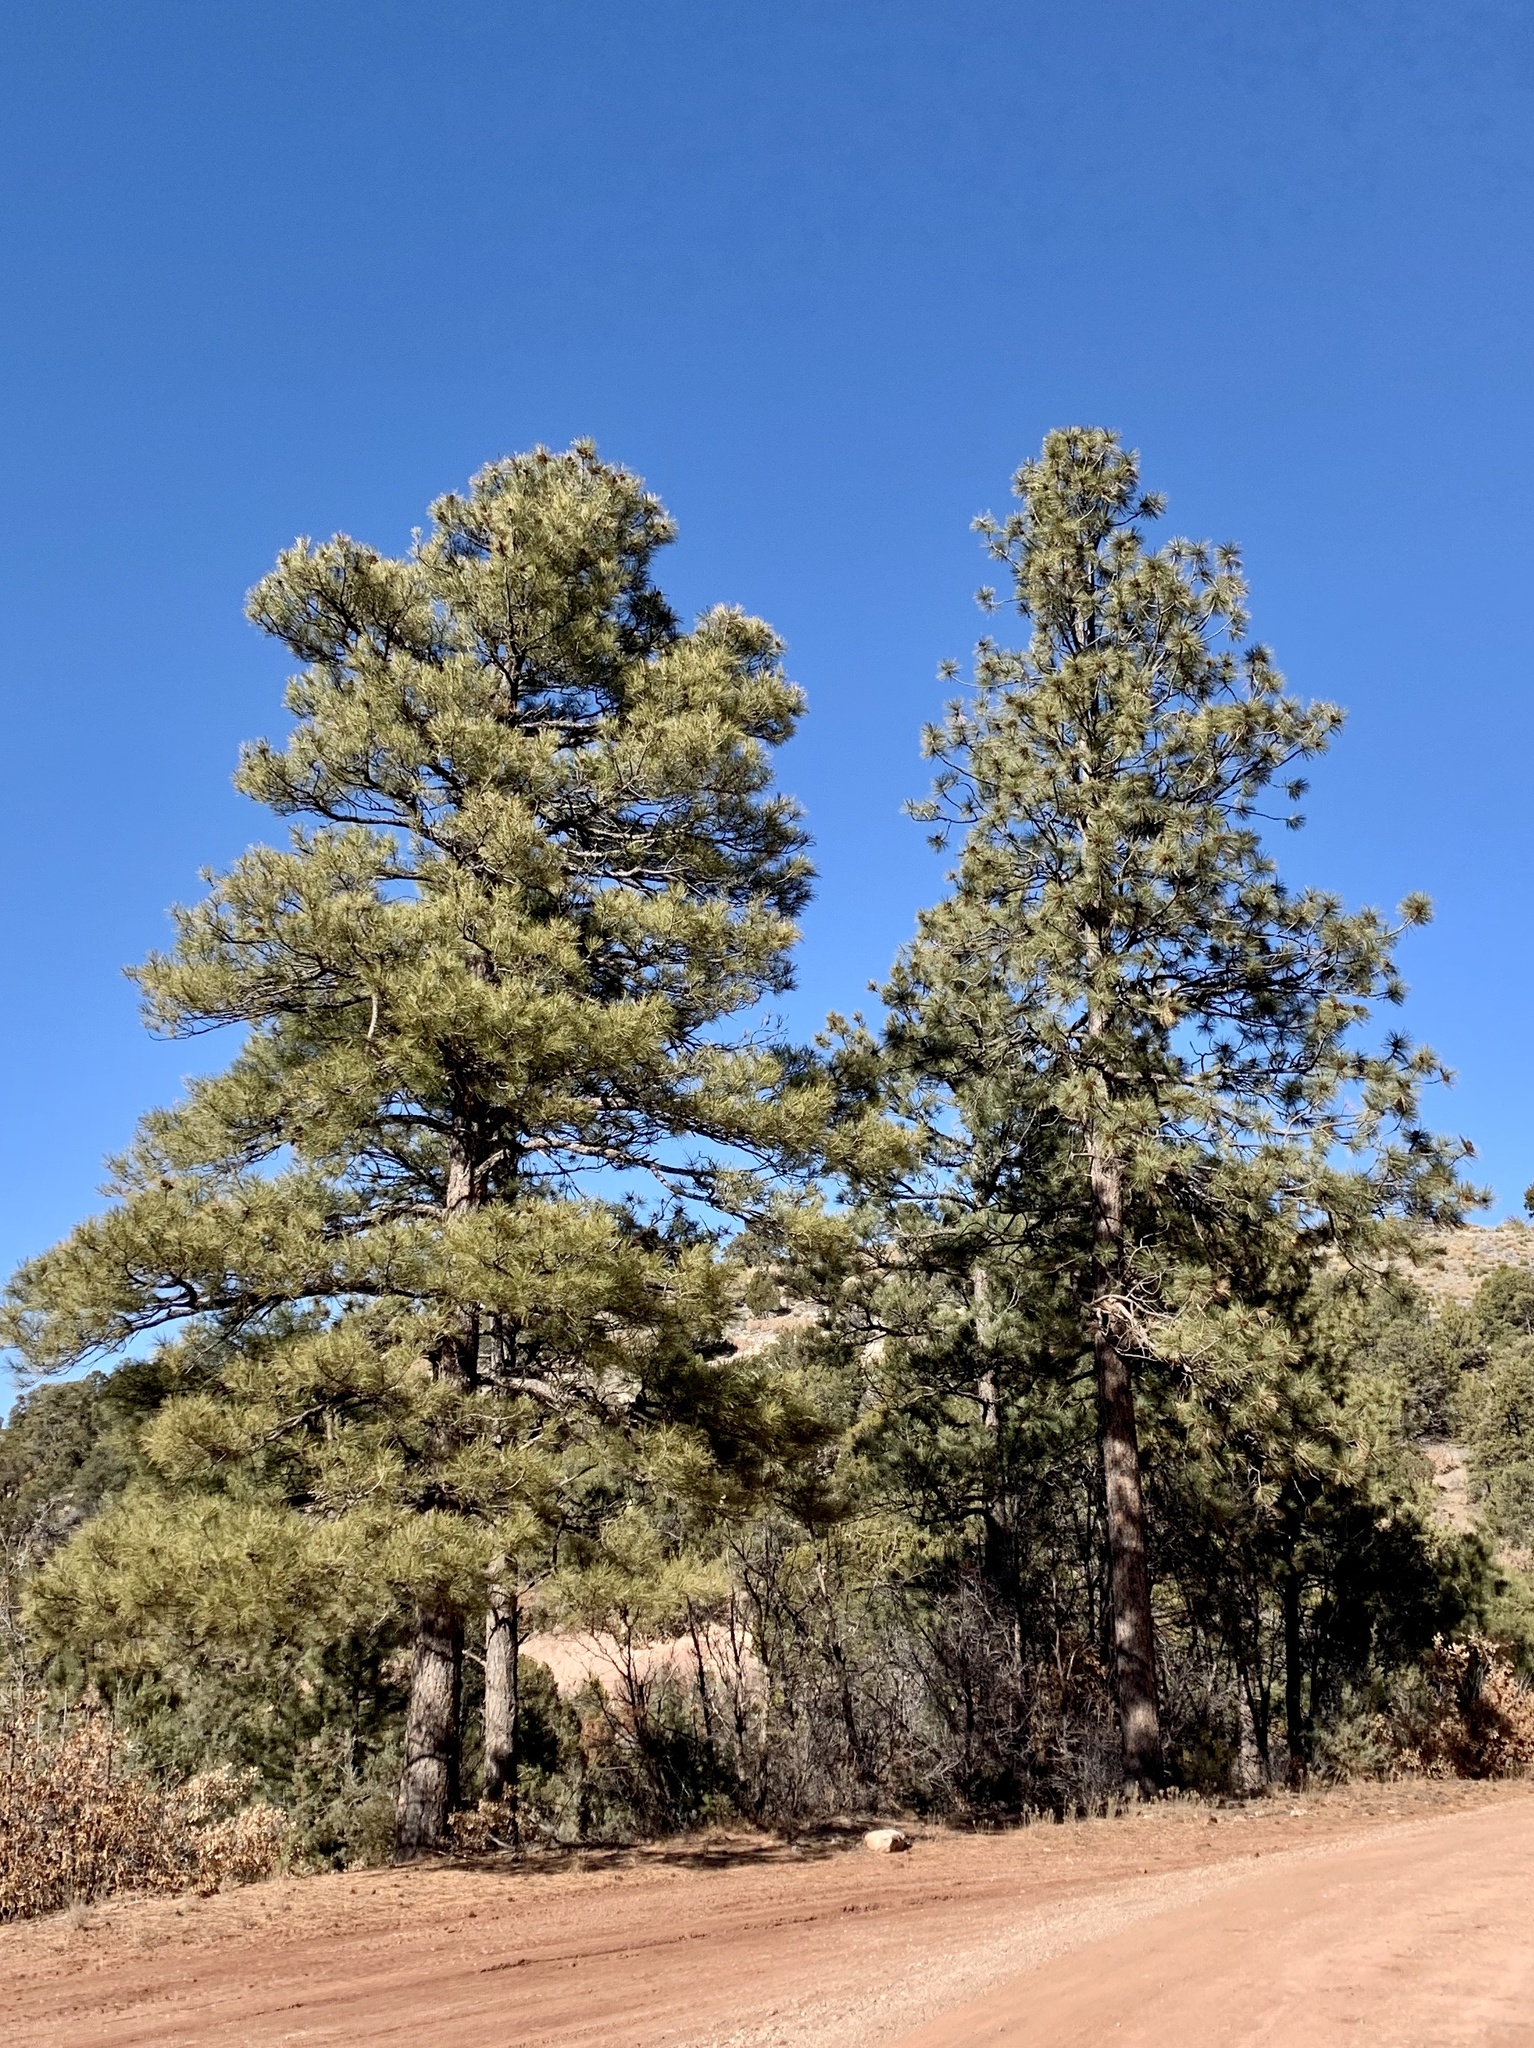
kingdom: Plantae
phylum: Tracheophyta
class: Pinopsida
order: Pinales
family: Pinaceae
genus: Pinus
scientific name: Pinus ponderosa
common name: Western yellow-pine
